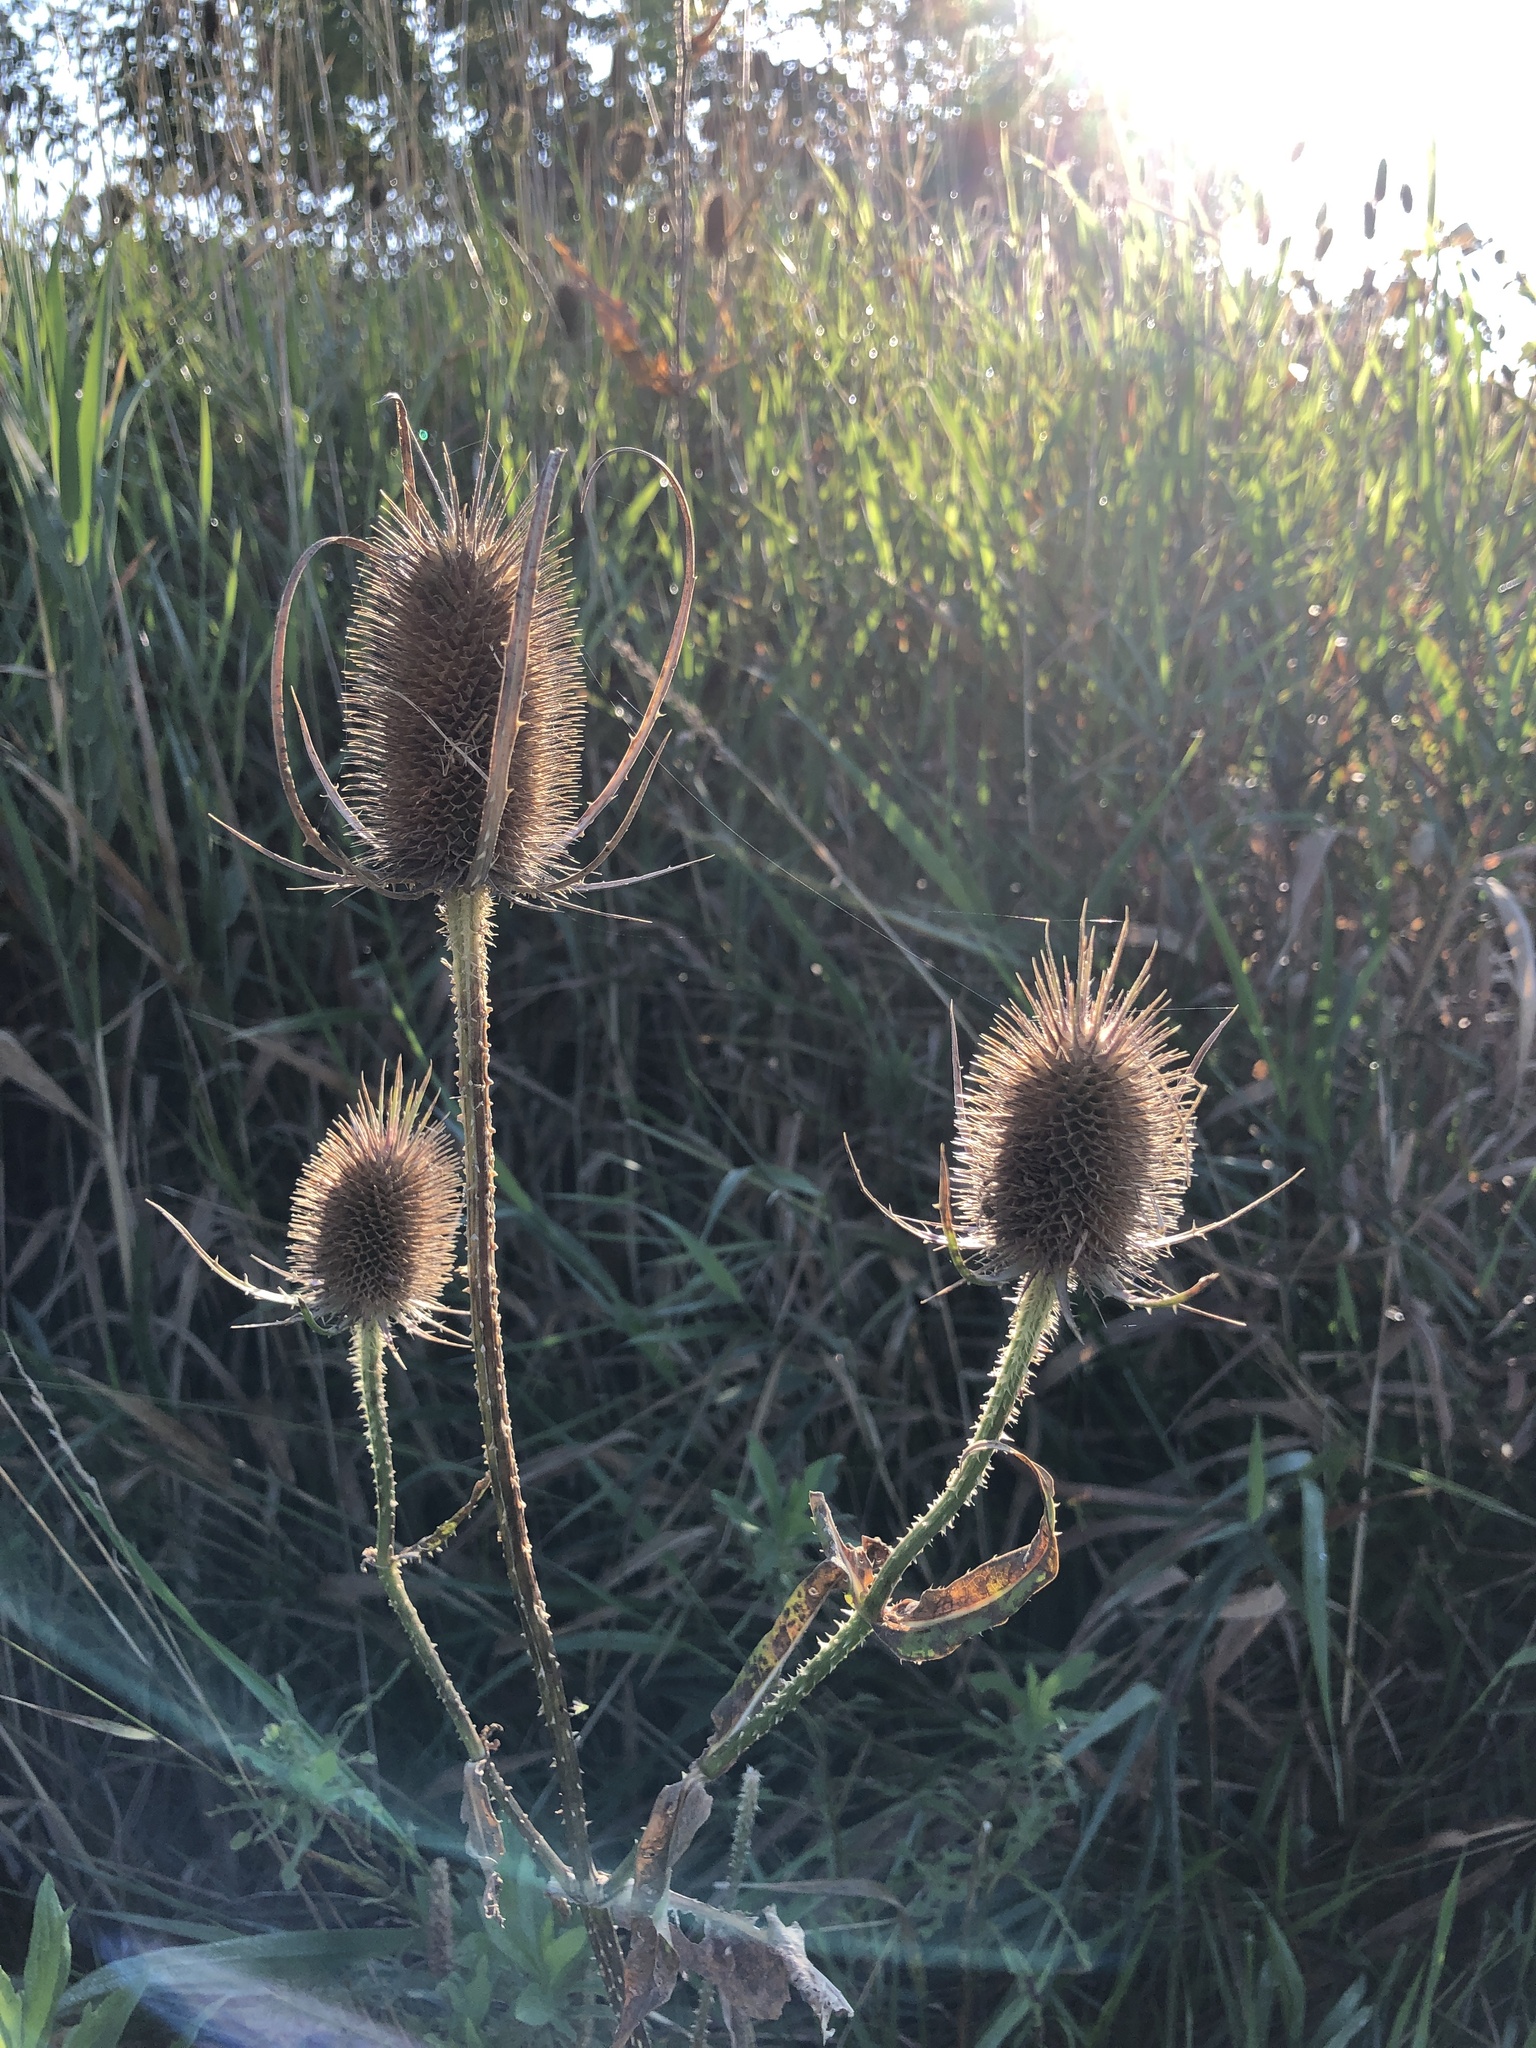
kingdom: Plantae
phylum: Tracheophyta
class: Magnoliopsida
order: Dipsacales
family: Caprifoliaceae
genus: Dipsacus
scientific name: Dipsacus fullonum
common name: Teasel
